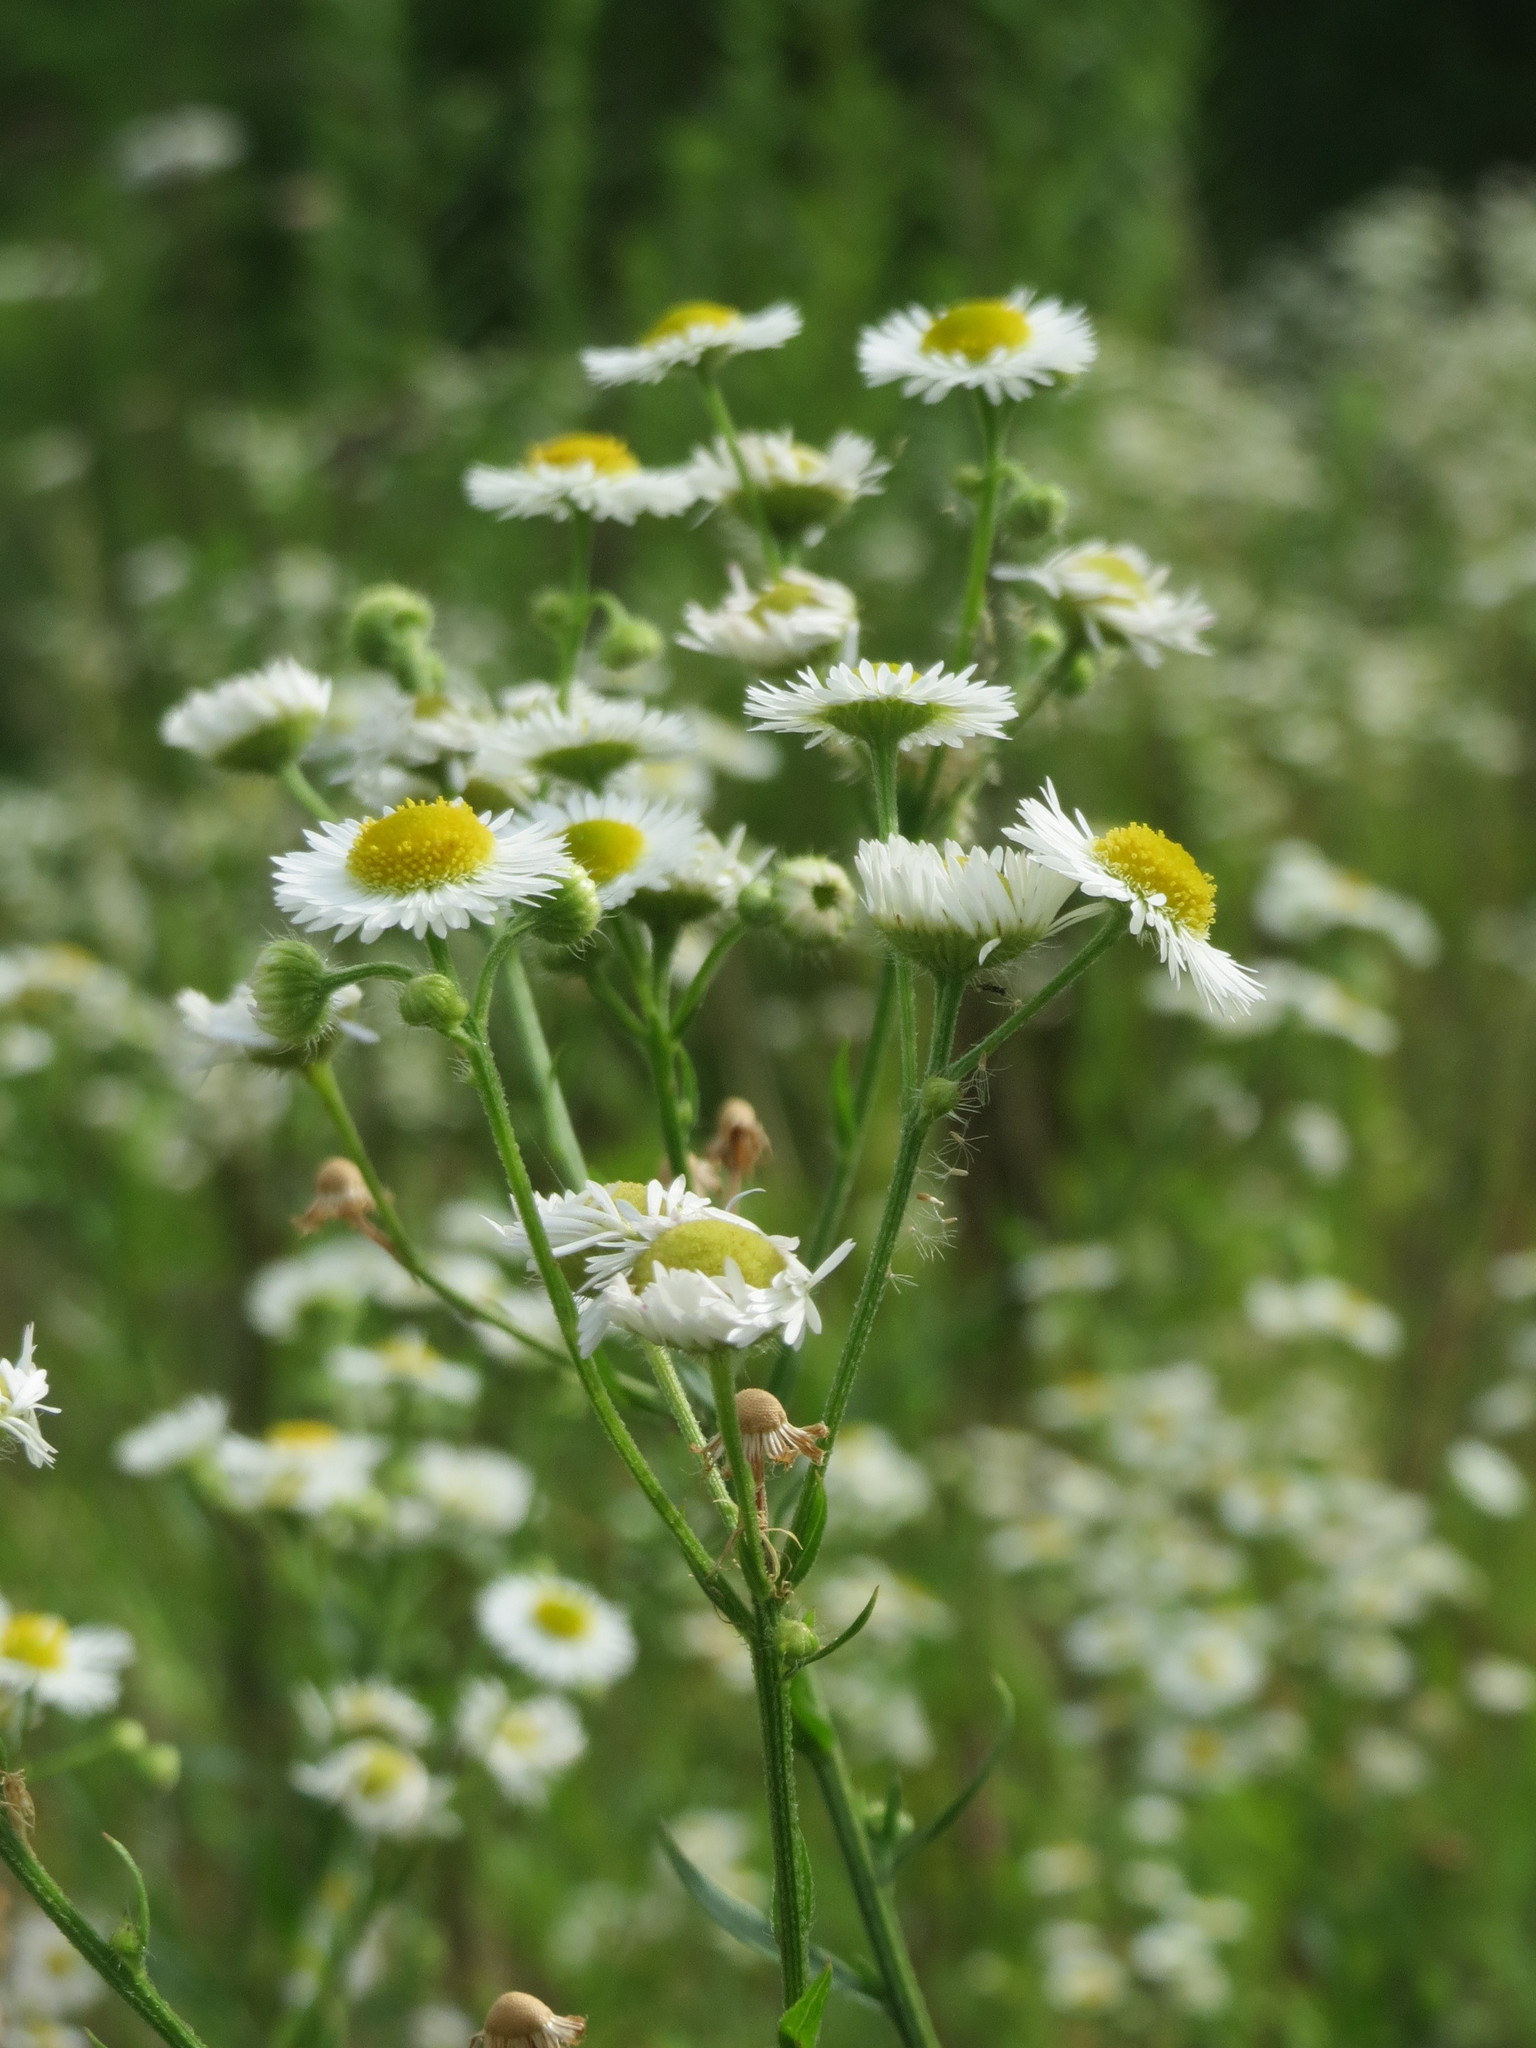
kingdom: Plantae
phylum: Tracheophyta
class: Magnoliopsida
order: Asterales
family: Asteraceae
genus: Erigeron
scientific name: Erigeron annuus
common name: Tall fleabane
